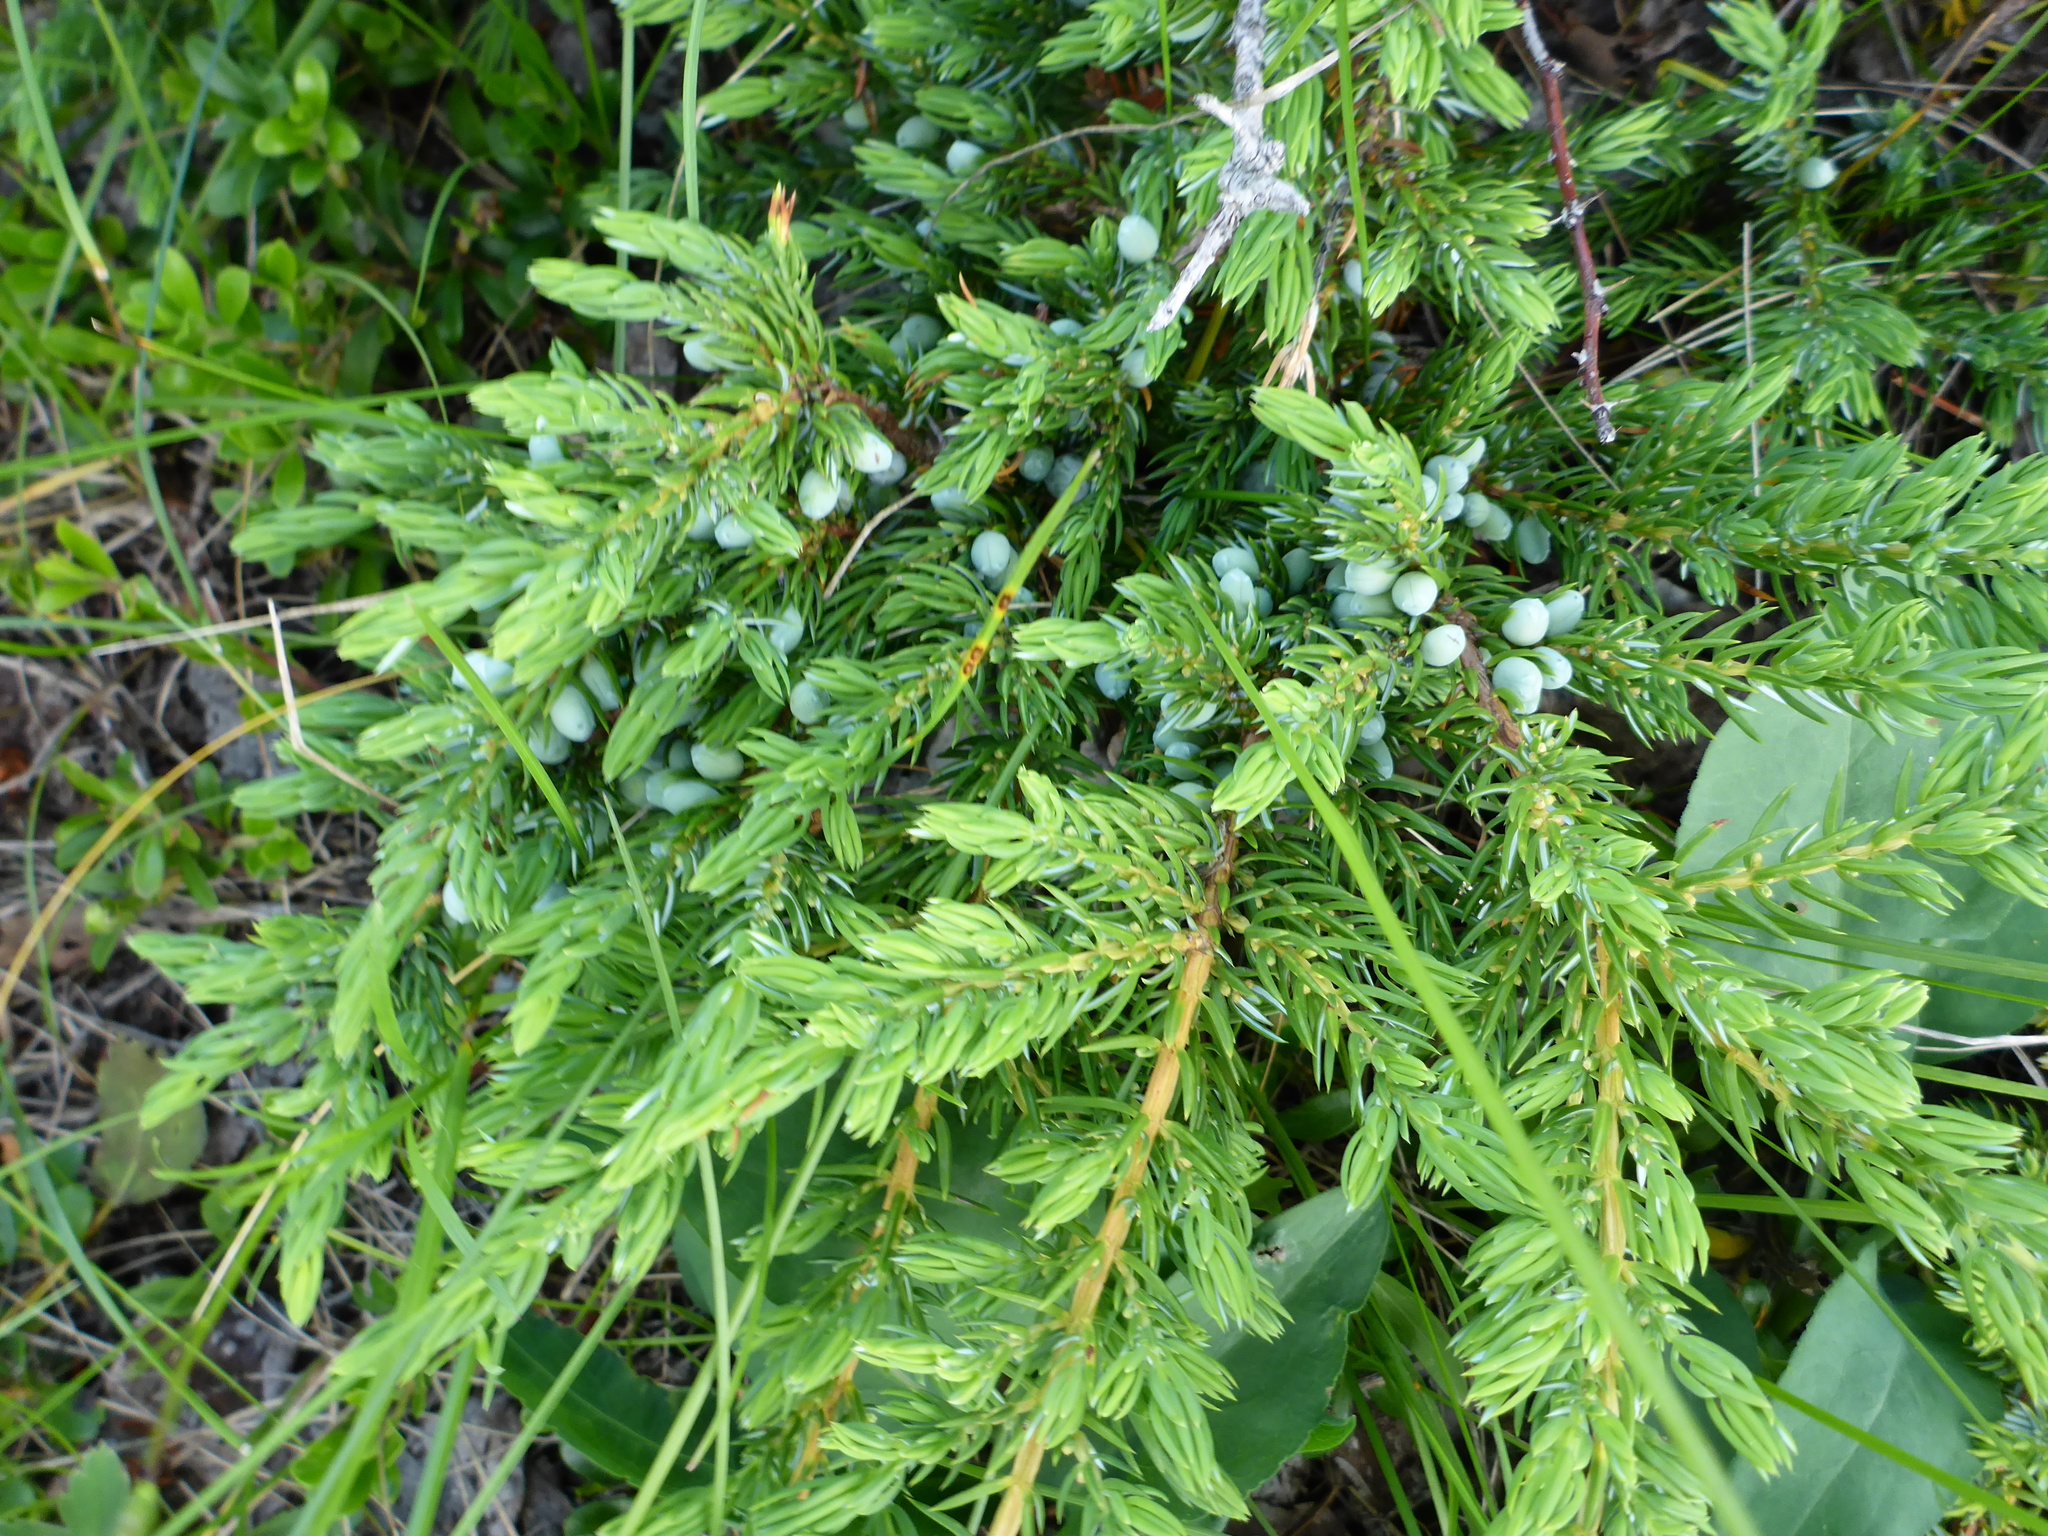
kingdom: Plantae
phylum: Tracheophyta
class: Pinopsida
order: Pinales
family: Cupressaceae
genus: Juniperus
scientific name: Juniperus communis
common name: Common juniper
